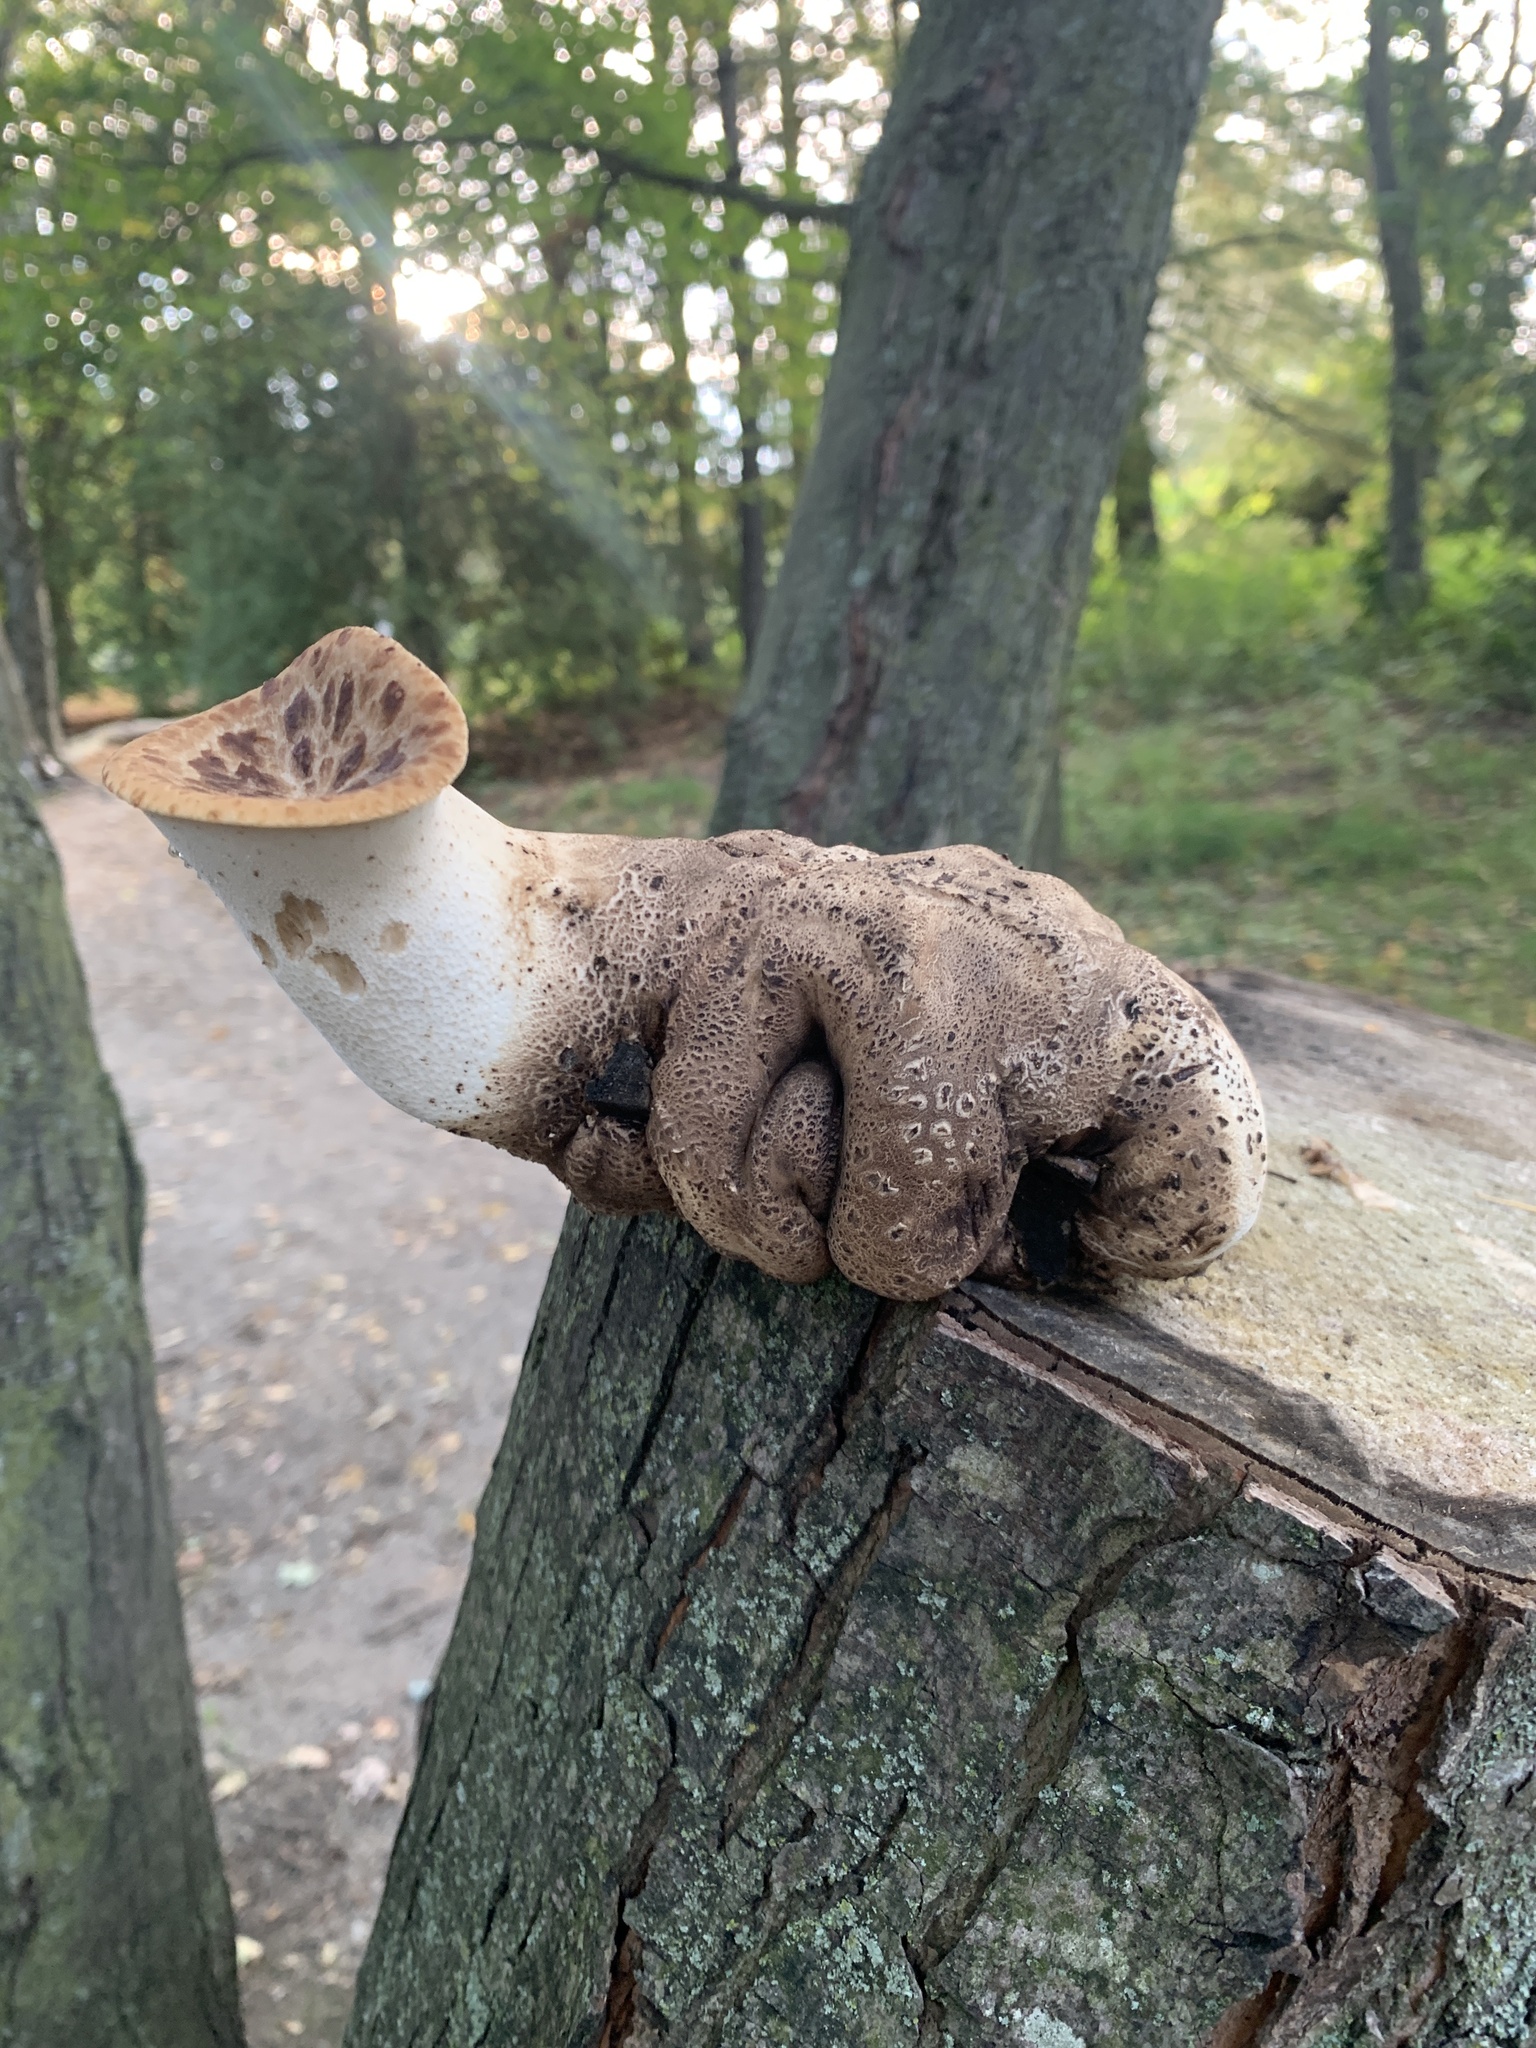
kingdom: Fungi
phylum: Basidiomycota
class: Agaricomycetes
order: Polyporales
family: Polyporaceae
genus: Cerioporus
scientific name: Cerioporus squamosus
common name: Dryad's saddle
